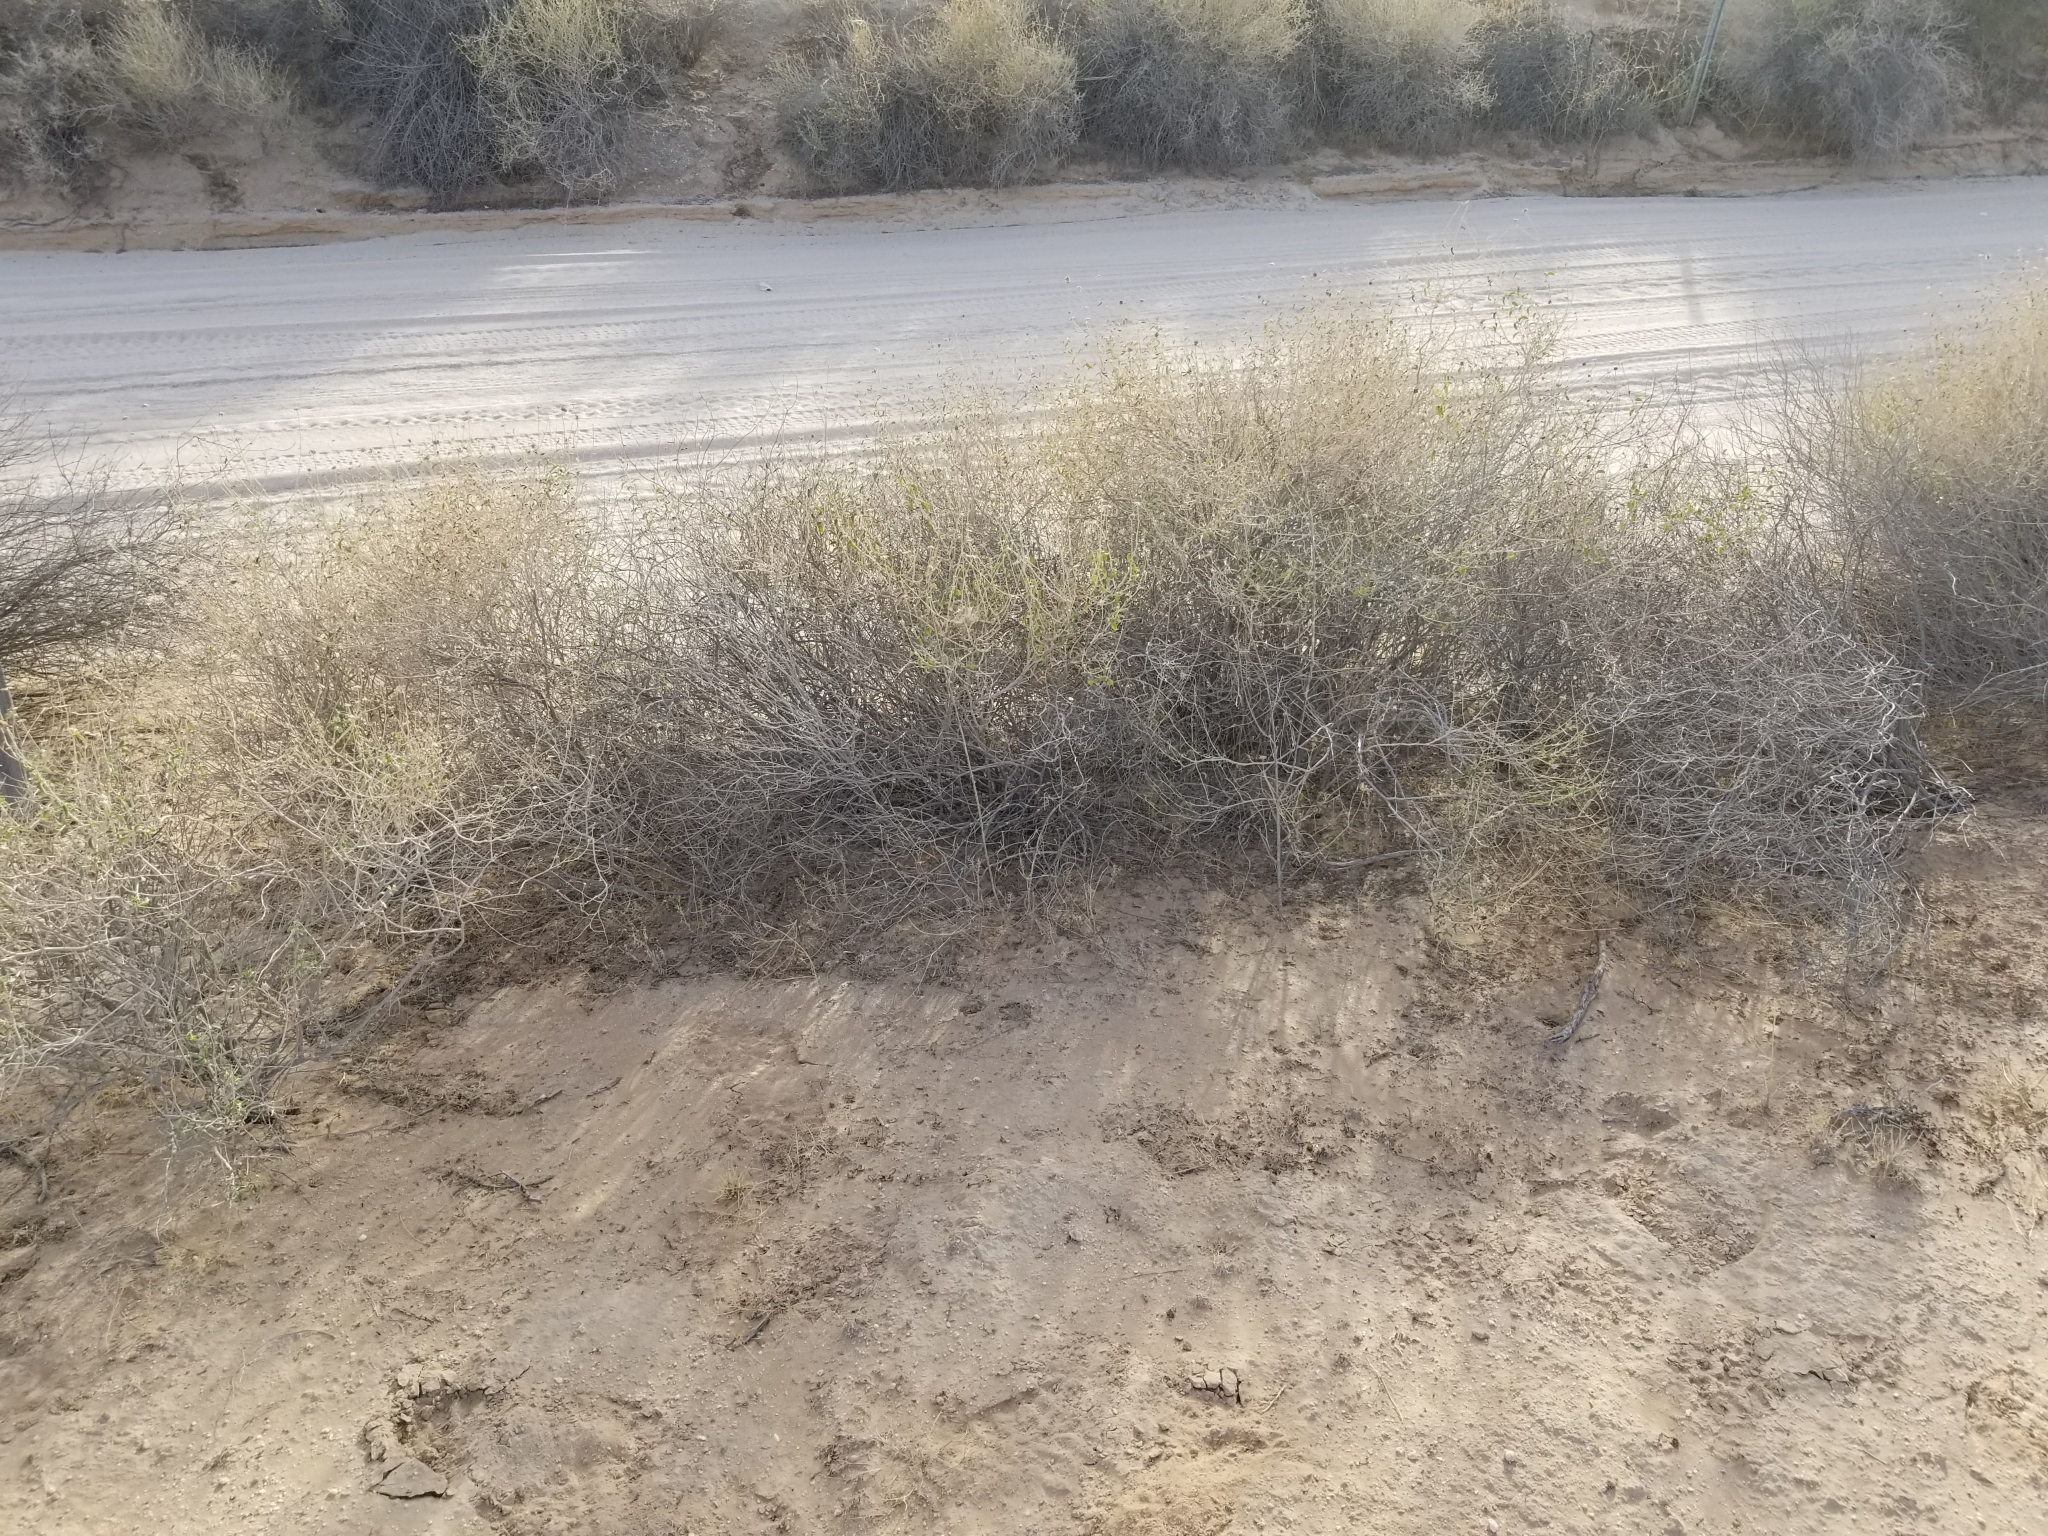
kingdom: Plantae
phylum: Tracheophyta
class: Magnoliopsida
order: Asterales
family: Asteraceae
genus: Encelia
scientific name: Encelia frutescens
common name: Bush encelia
